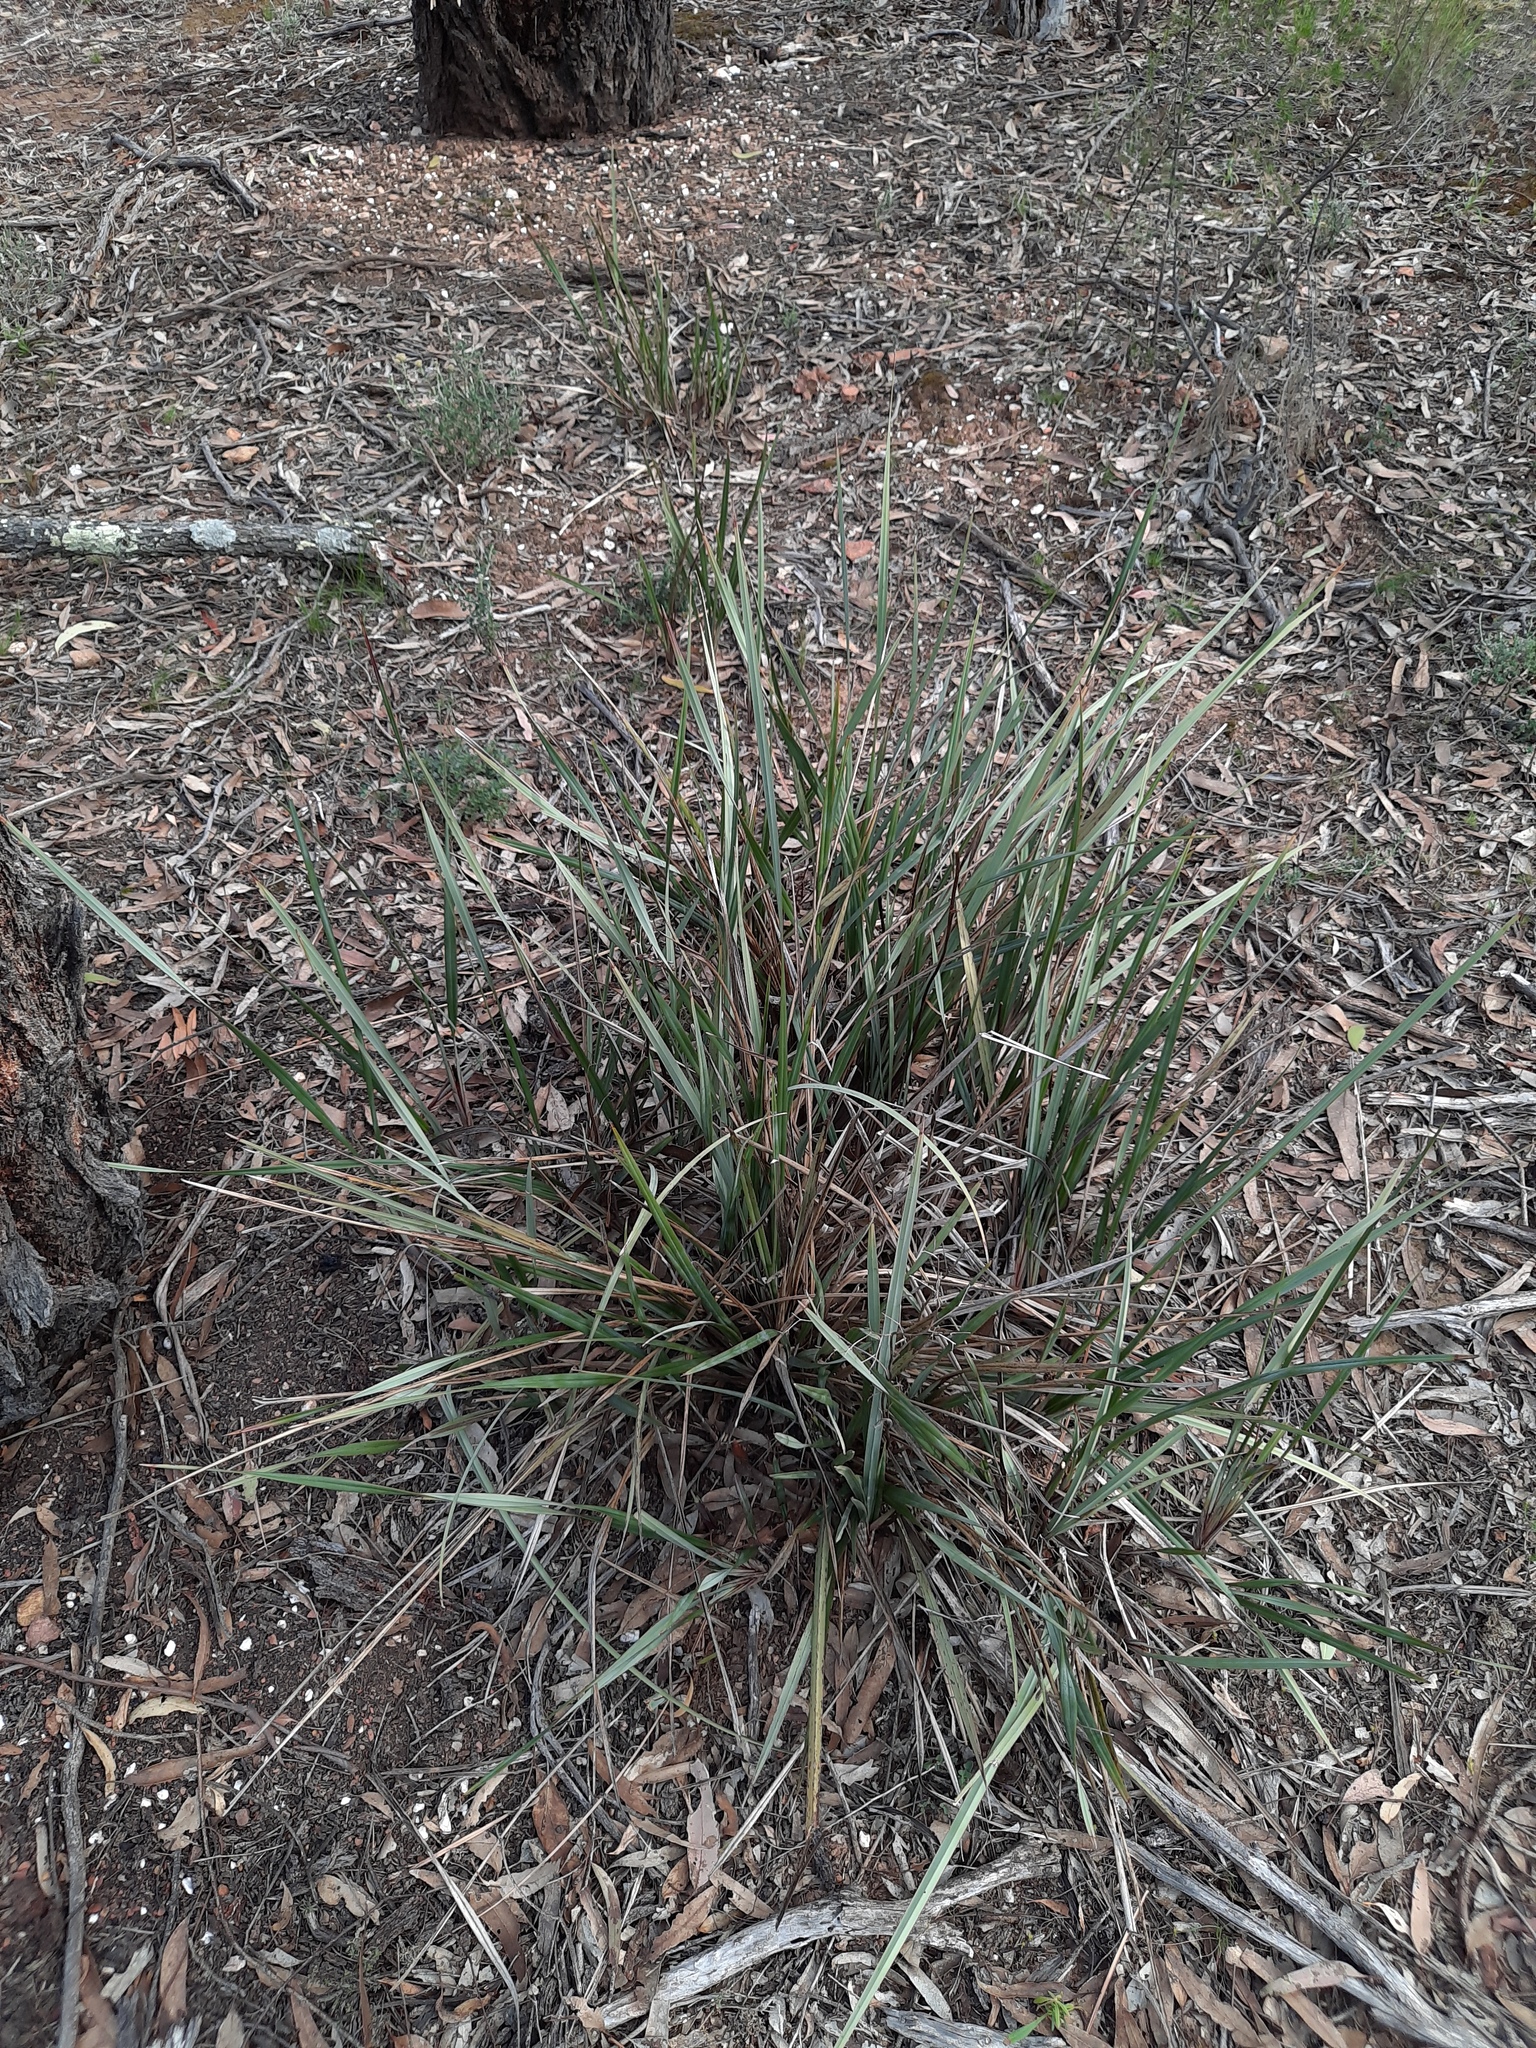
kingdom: Plantae
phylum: Tracheophyta
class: Liliopsida
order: Asparagales
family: Asphodelaceae
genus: Dianella
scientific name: Dianella revoluta
